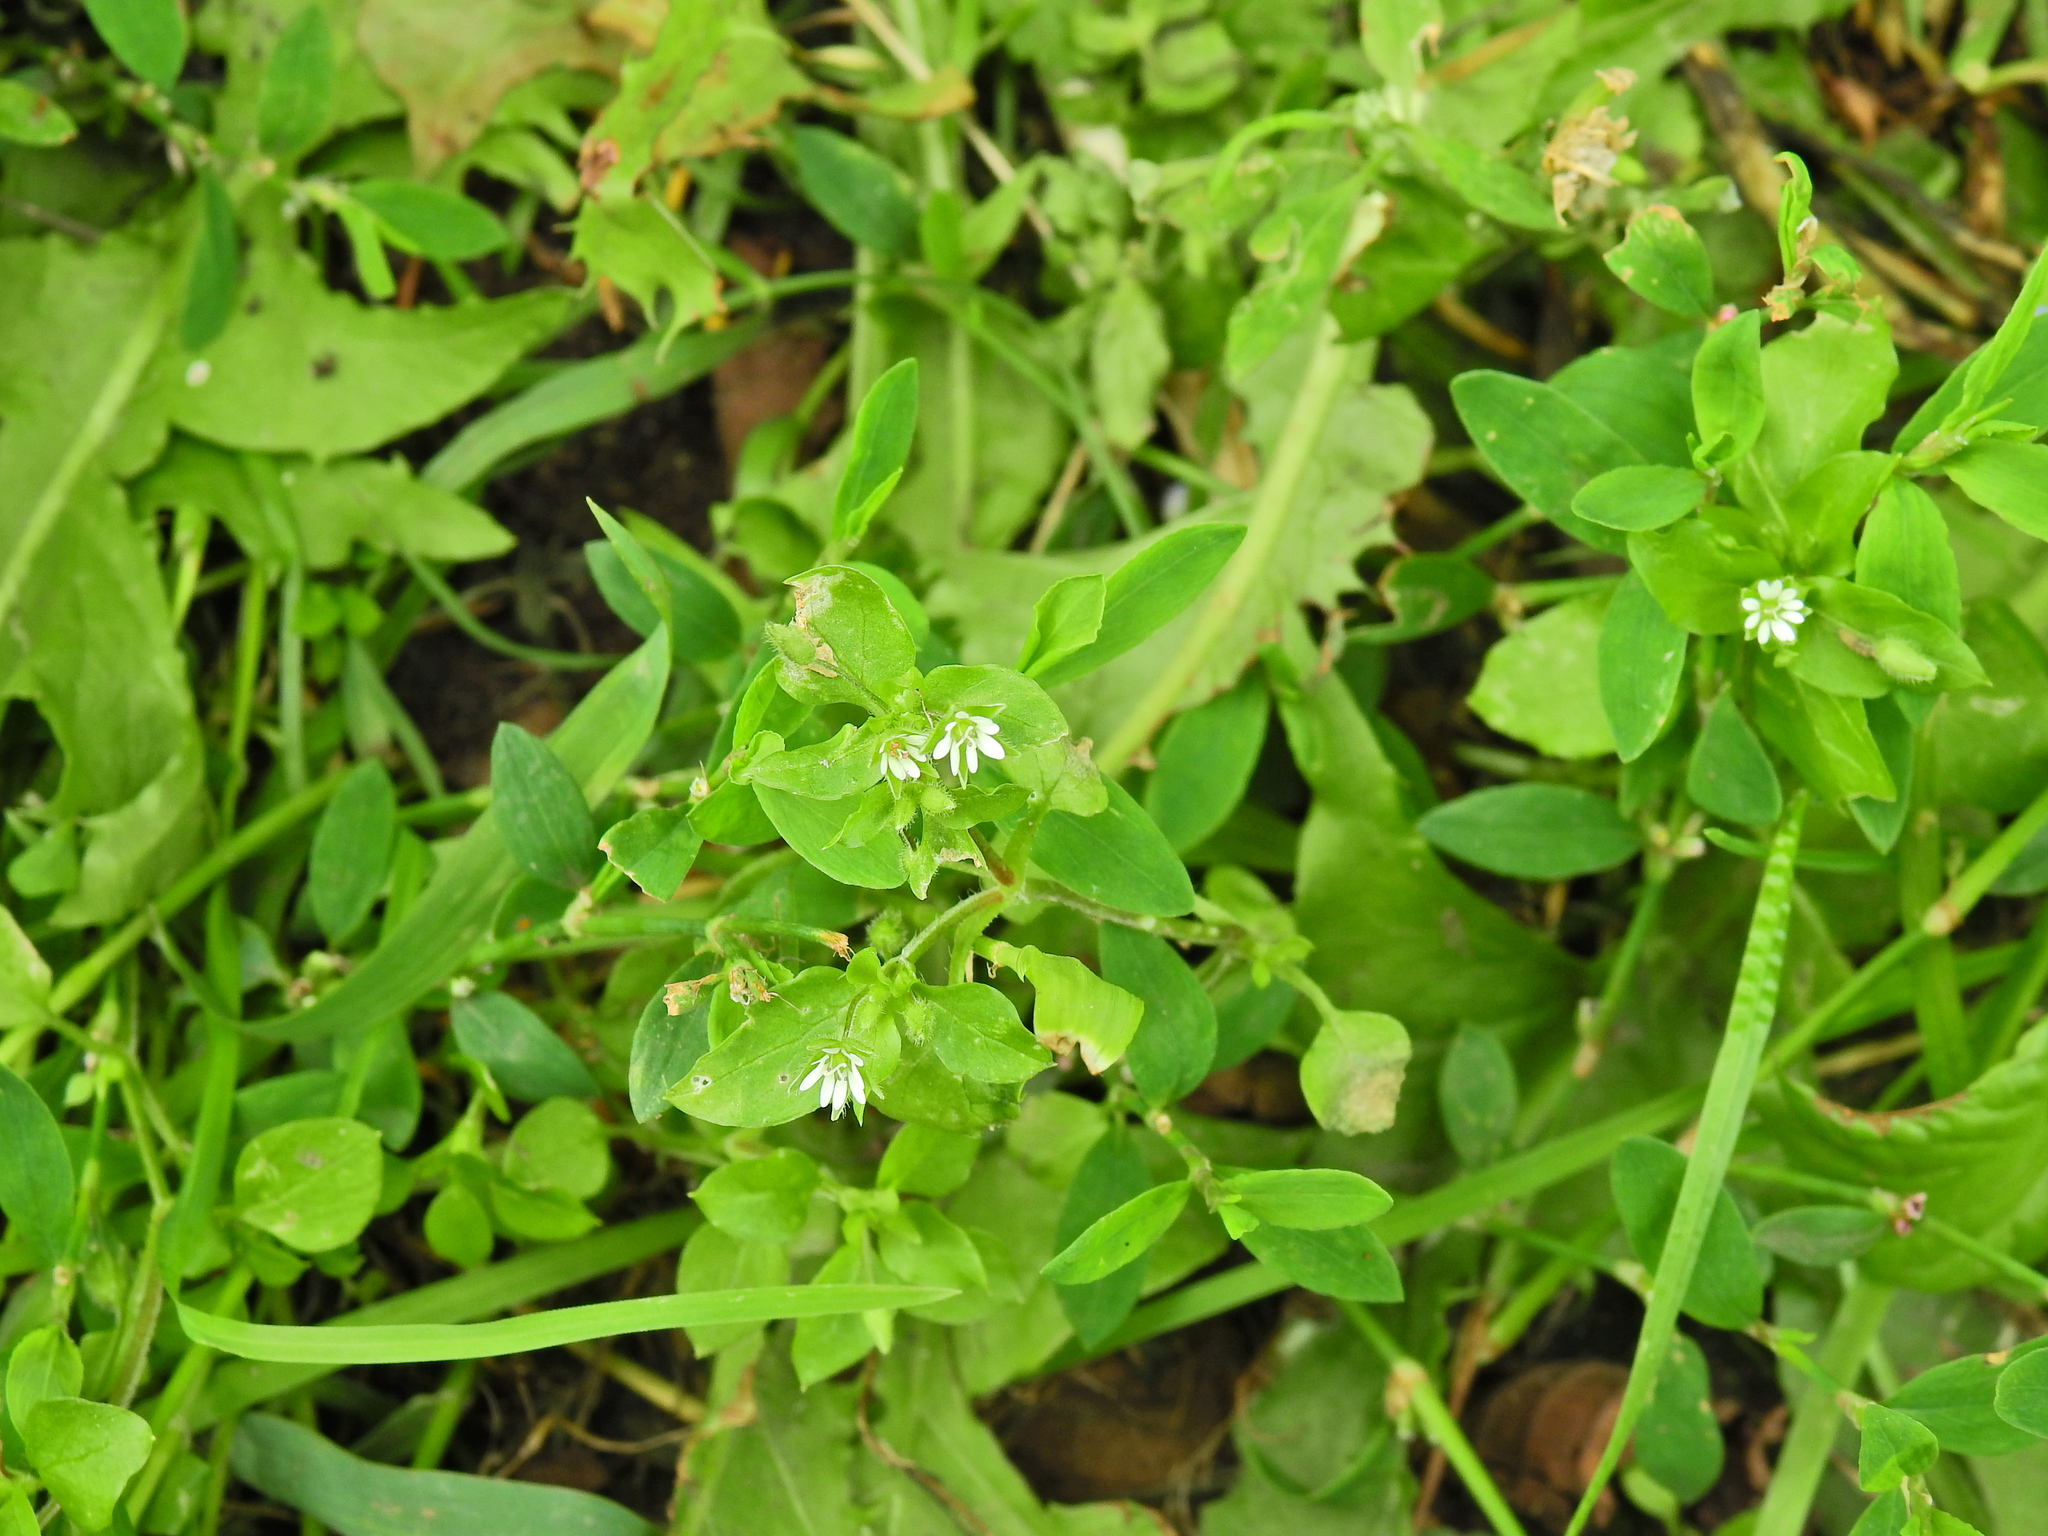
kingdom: Plantae
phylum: Tracheophyta
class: Magnoliopsida
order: Caryophyllales
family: Caryophyllaceae
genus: Stellaria
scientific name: Stellaria media
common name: Common chickweed
